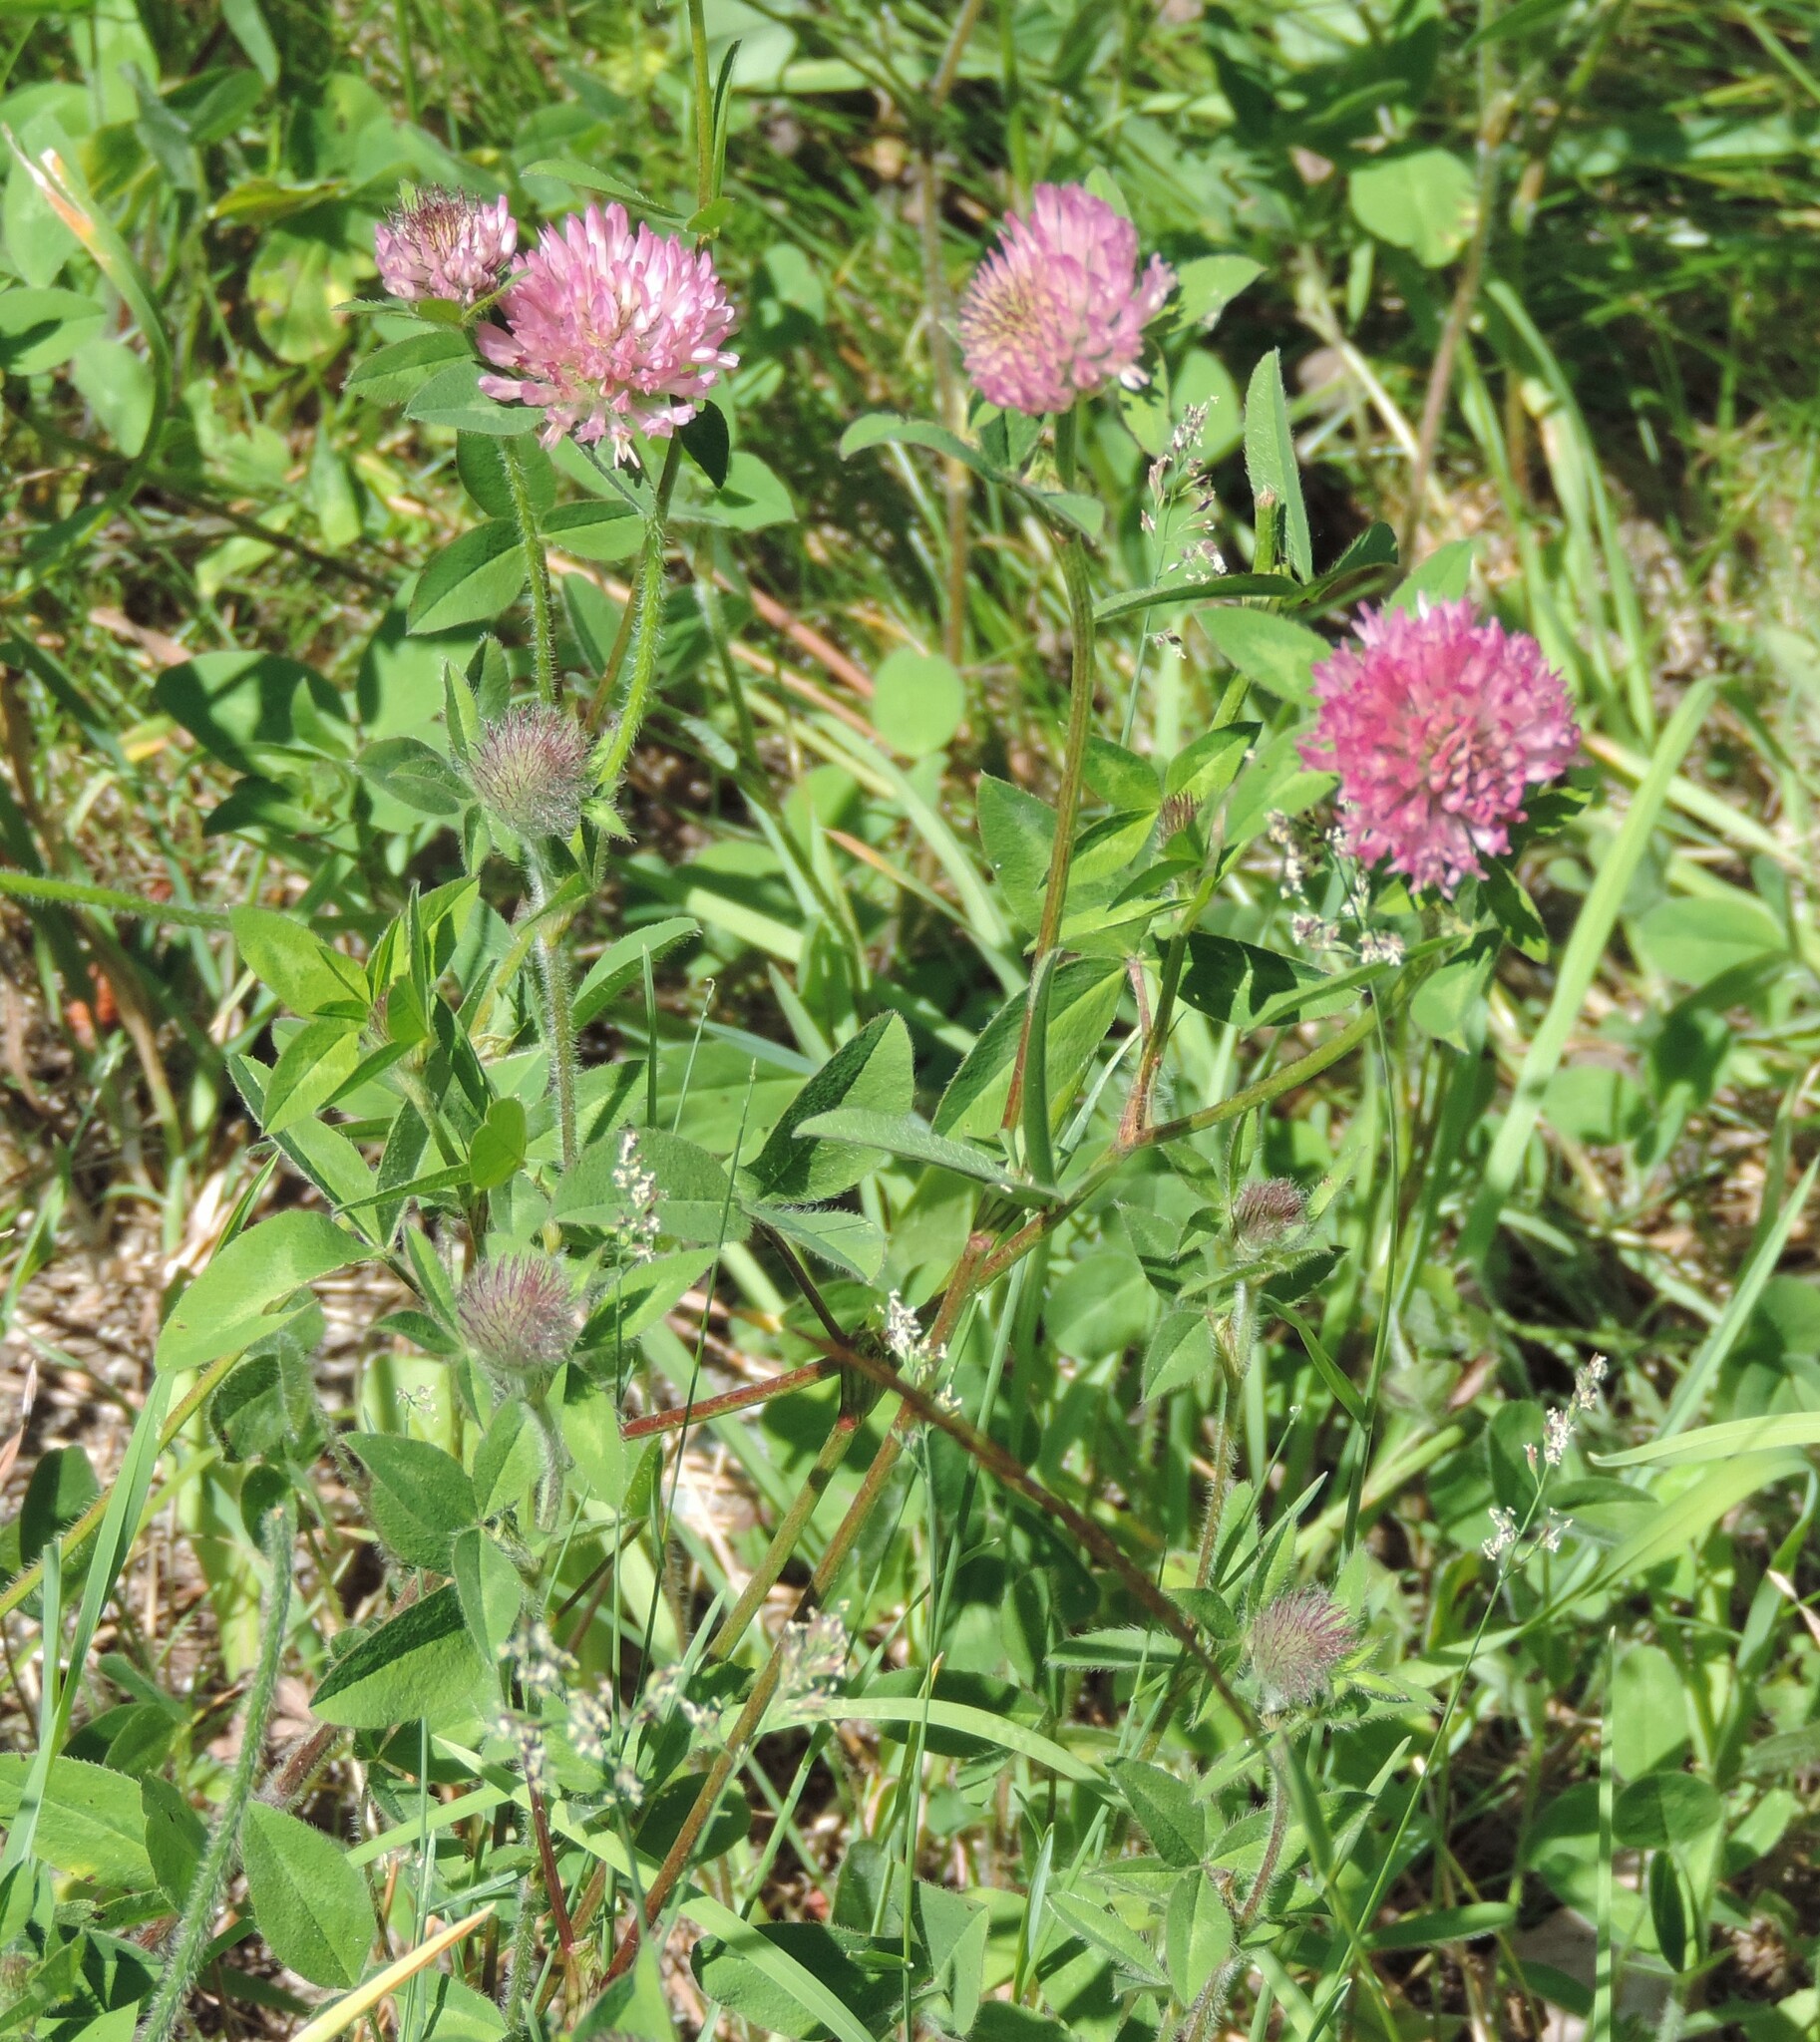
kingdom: Plantae
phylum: Tracheophyta
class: Magnoliopsida
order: Fabales
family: Fabaceae
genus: Trifolium
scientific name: Trifolium pratense
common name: Red clover
